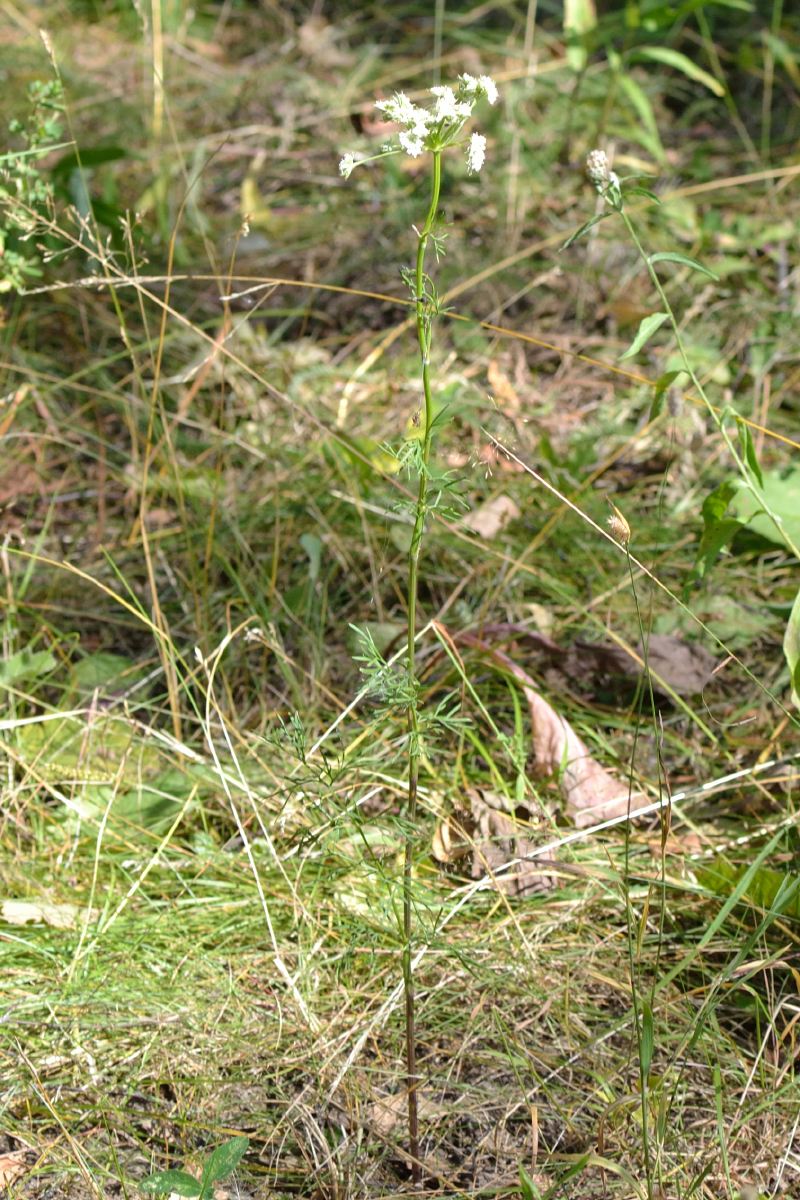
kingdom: Plantae
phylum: Tracheophyta
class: Magnoliopsida
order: Apiales
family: Apiaceae
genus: Seseli
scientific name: Seseli annuum
